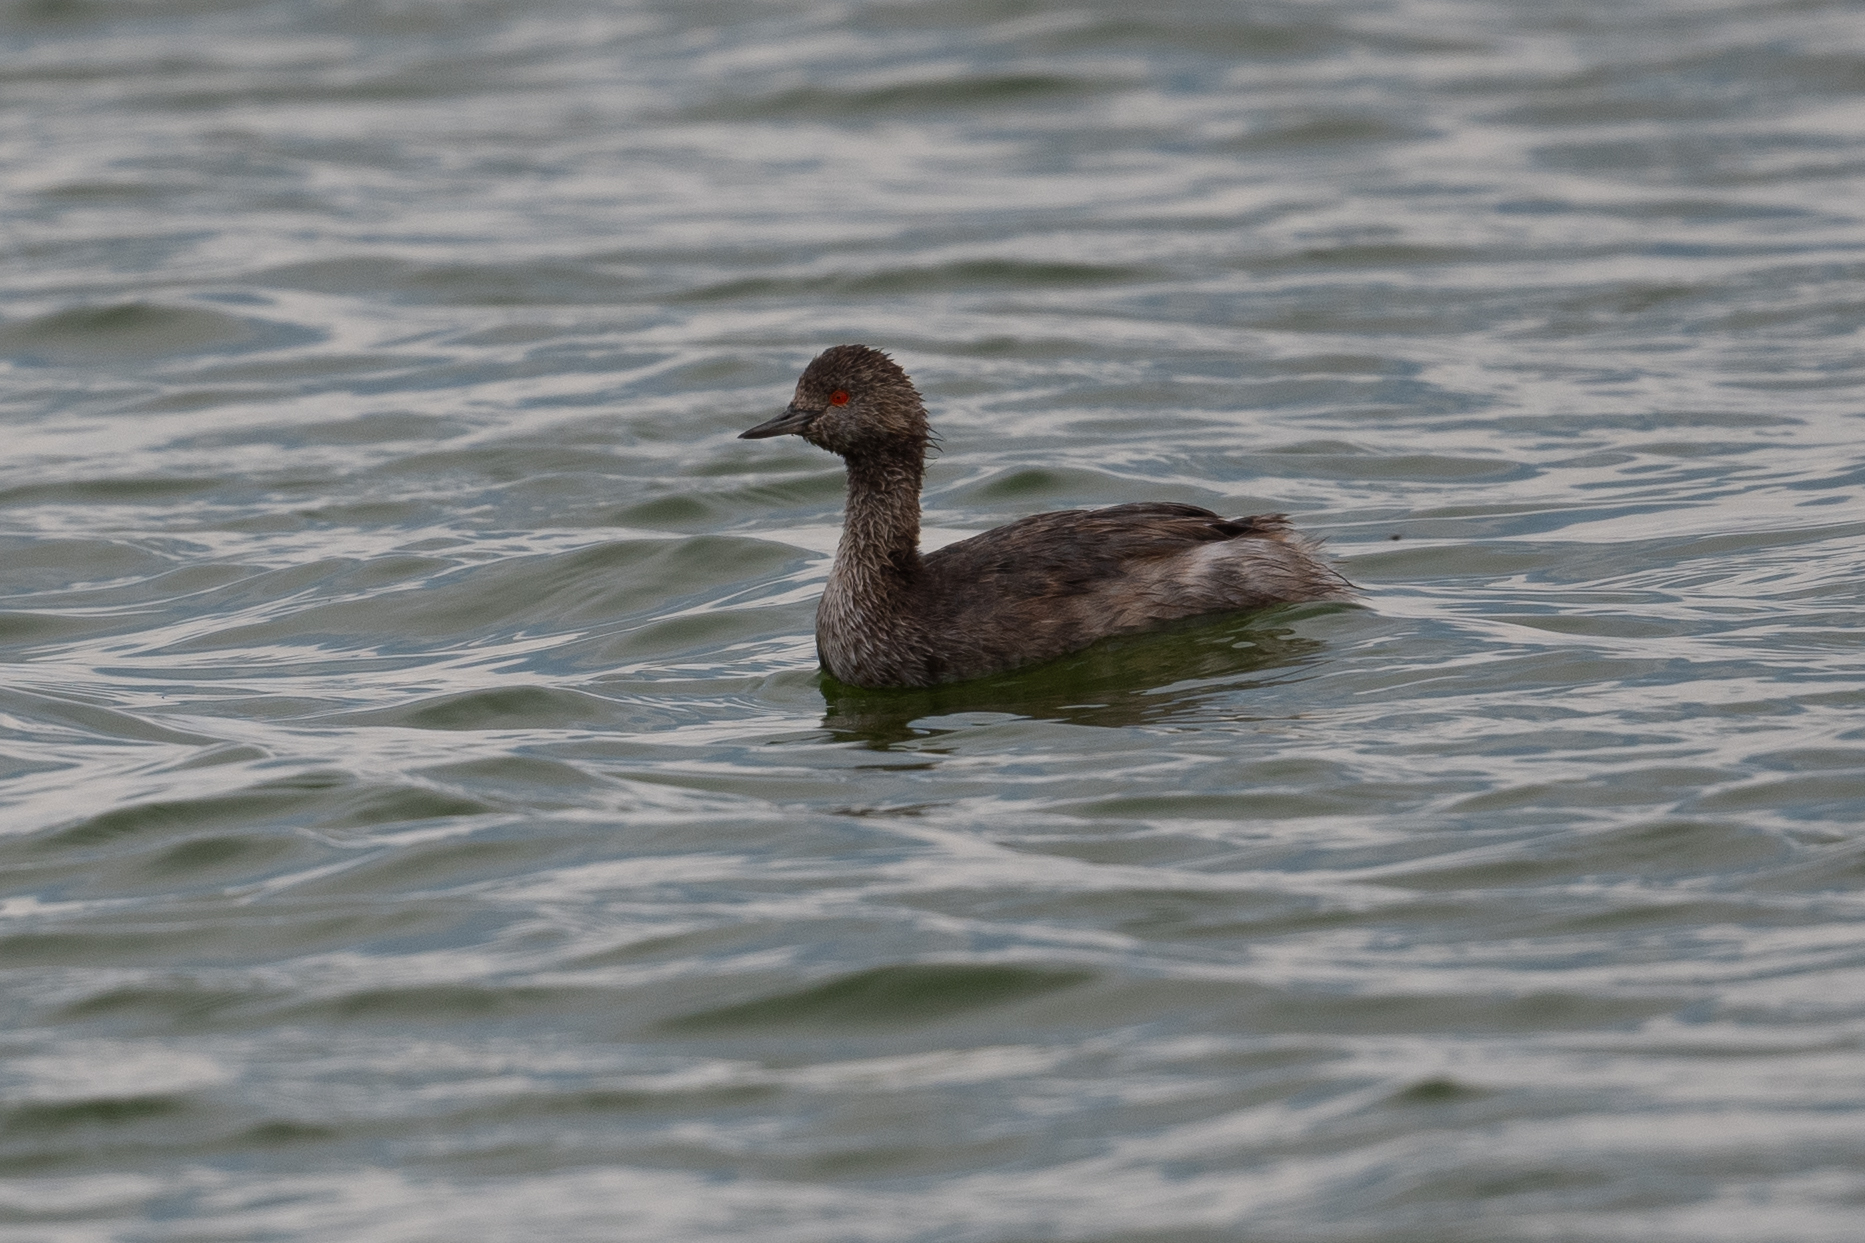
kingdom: Animalia
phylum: Chordata
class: Aves
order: Podicipediformes
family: Podicipedidae
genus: Podiceps
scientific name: Podiceps nigricollis
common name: Black-necked grebe
